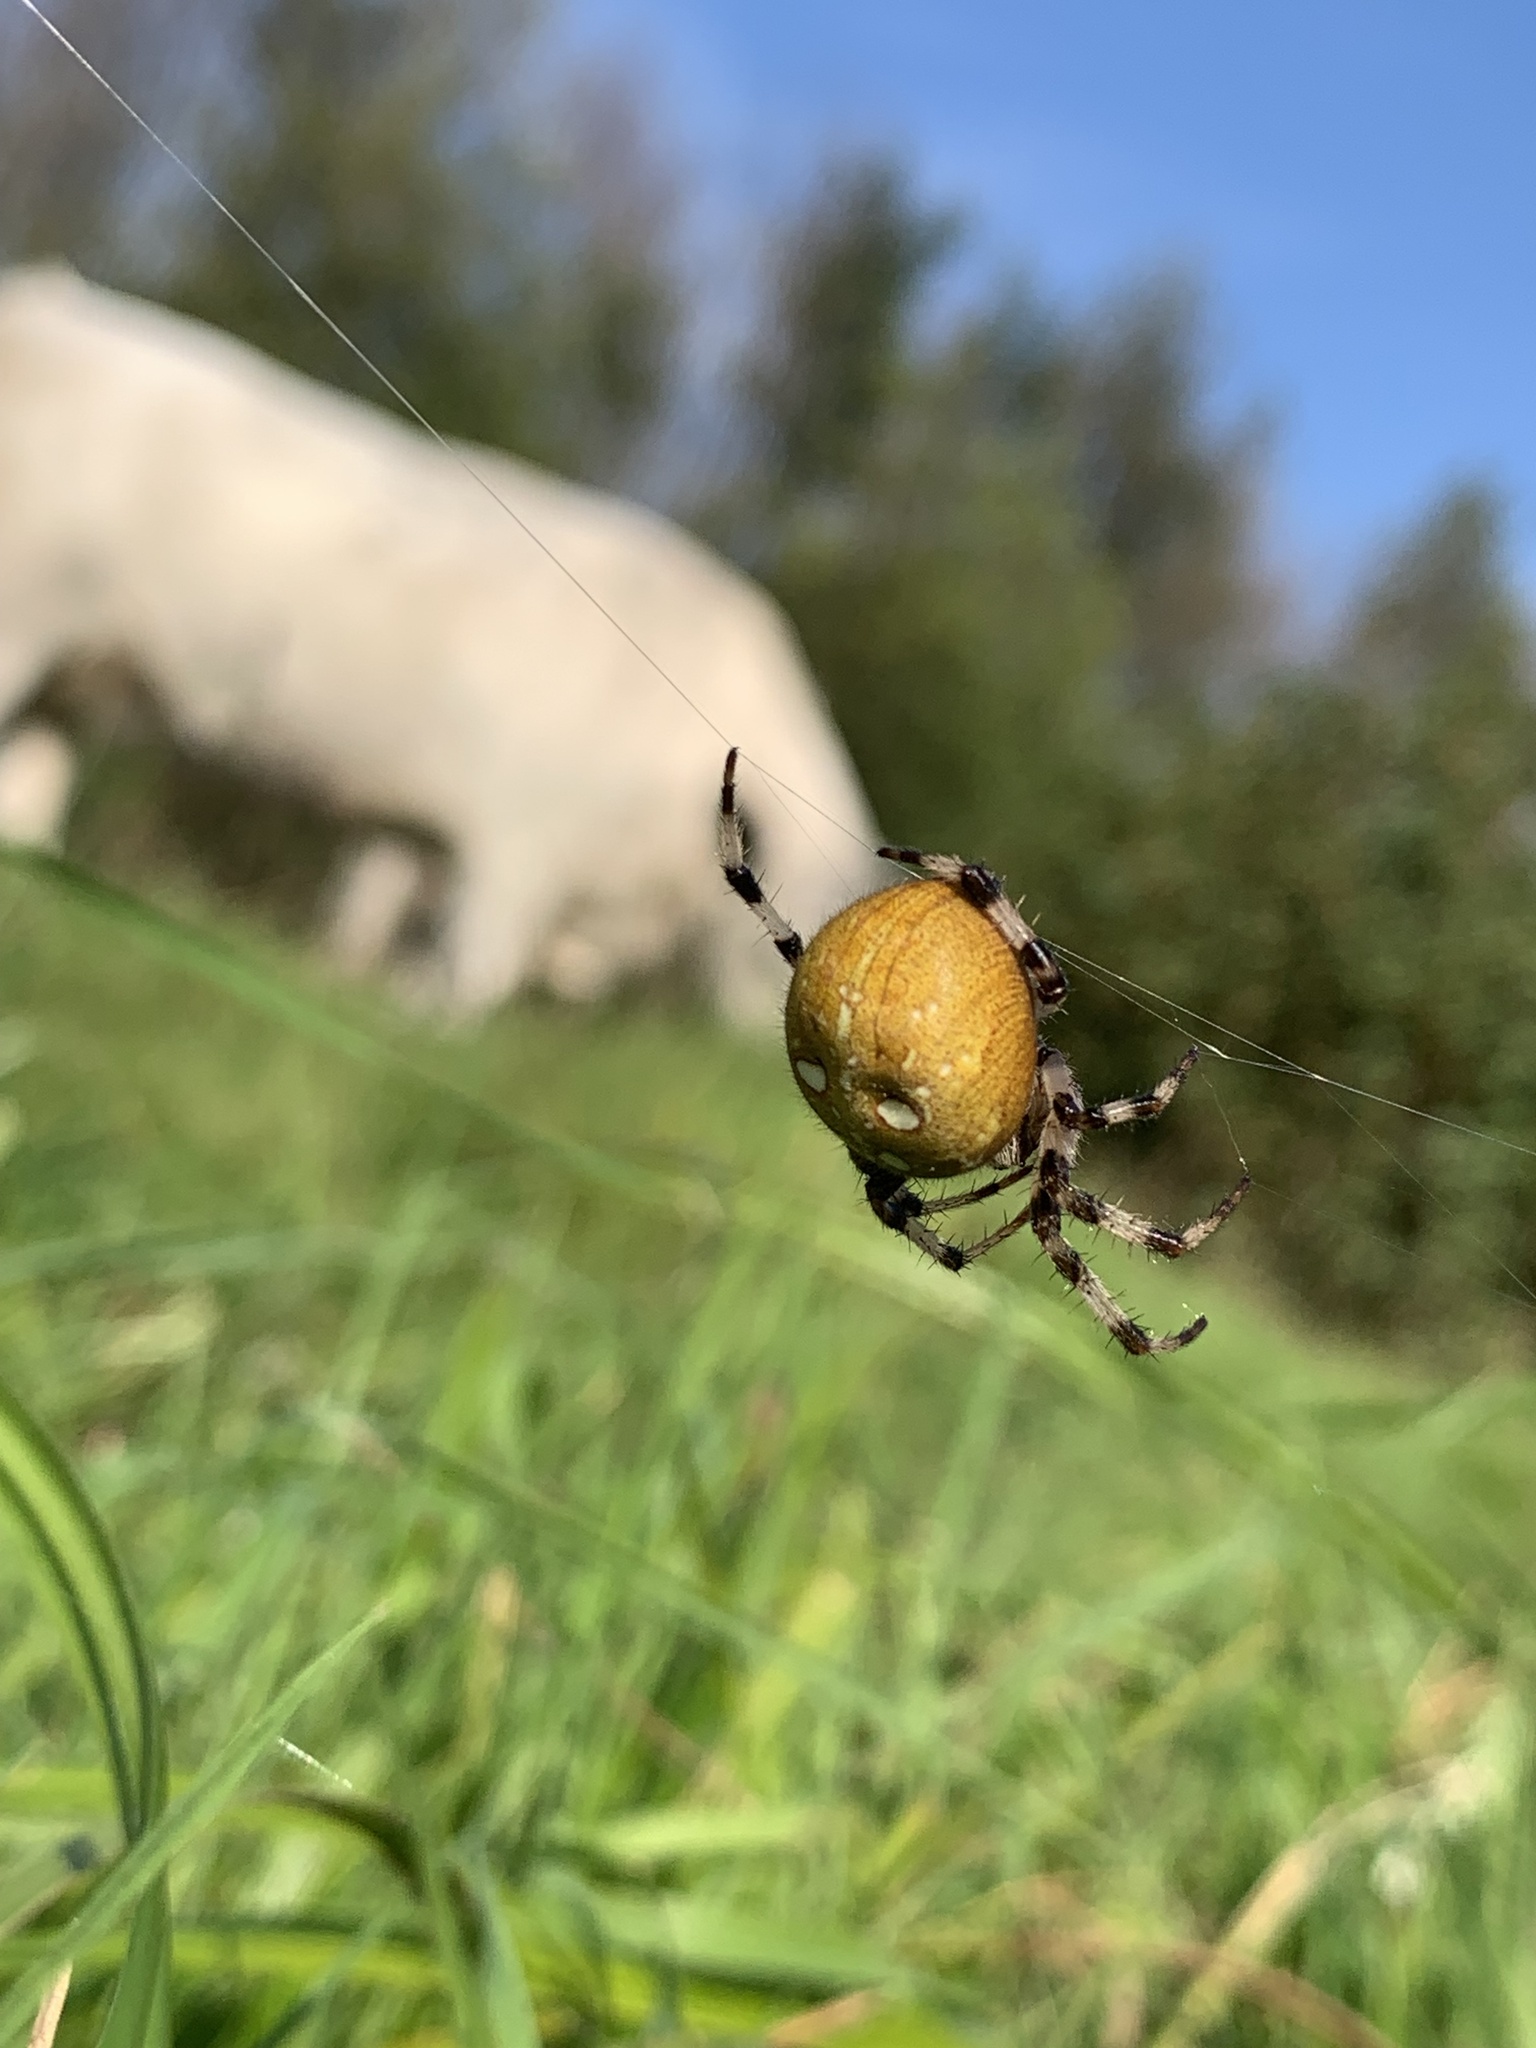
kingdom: Animalia
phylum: Arthropoda
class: Arachnida
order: Araneae
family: Araneidae
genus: Araneus
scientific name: Araneus quadratus
